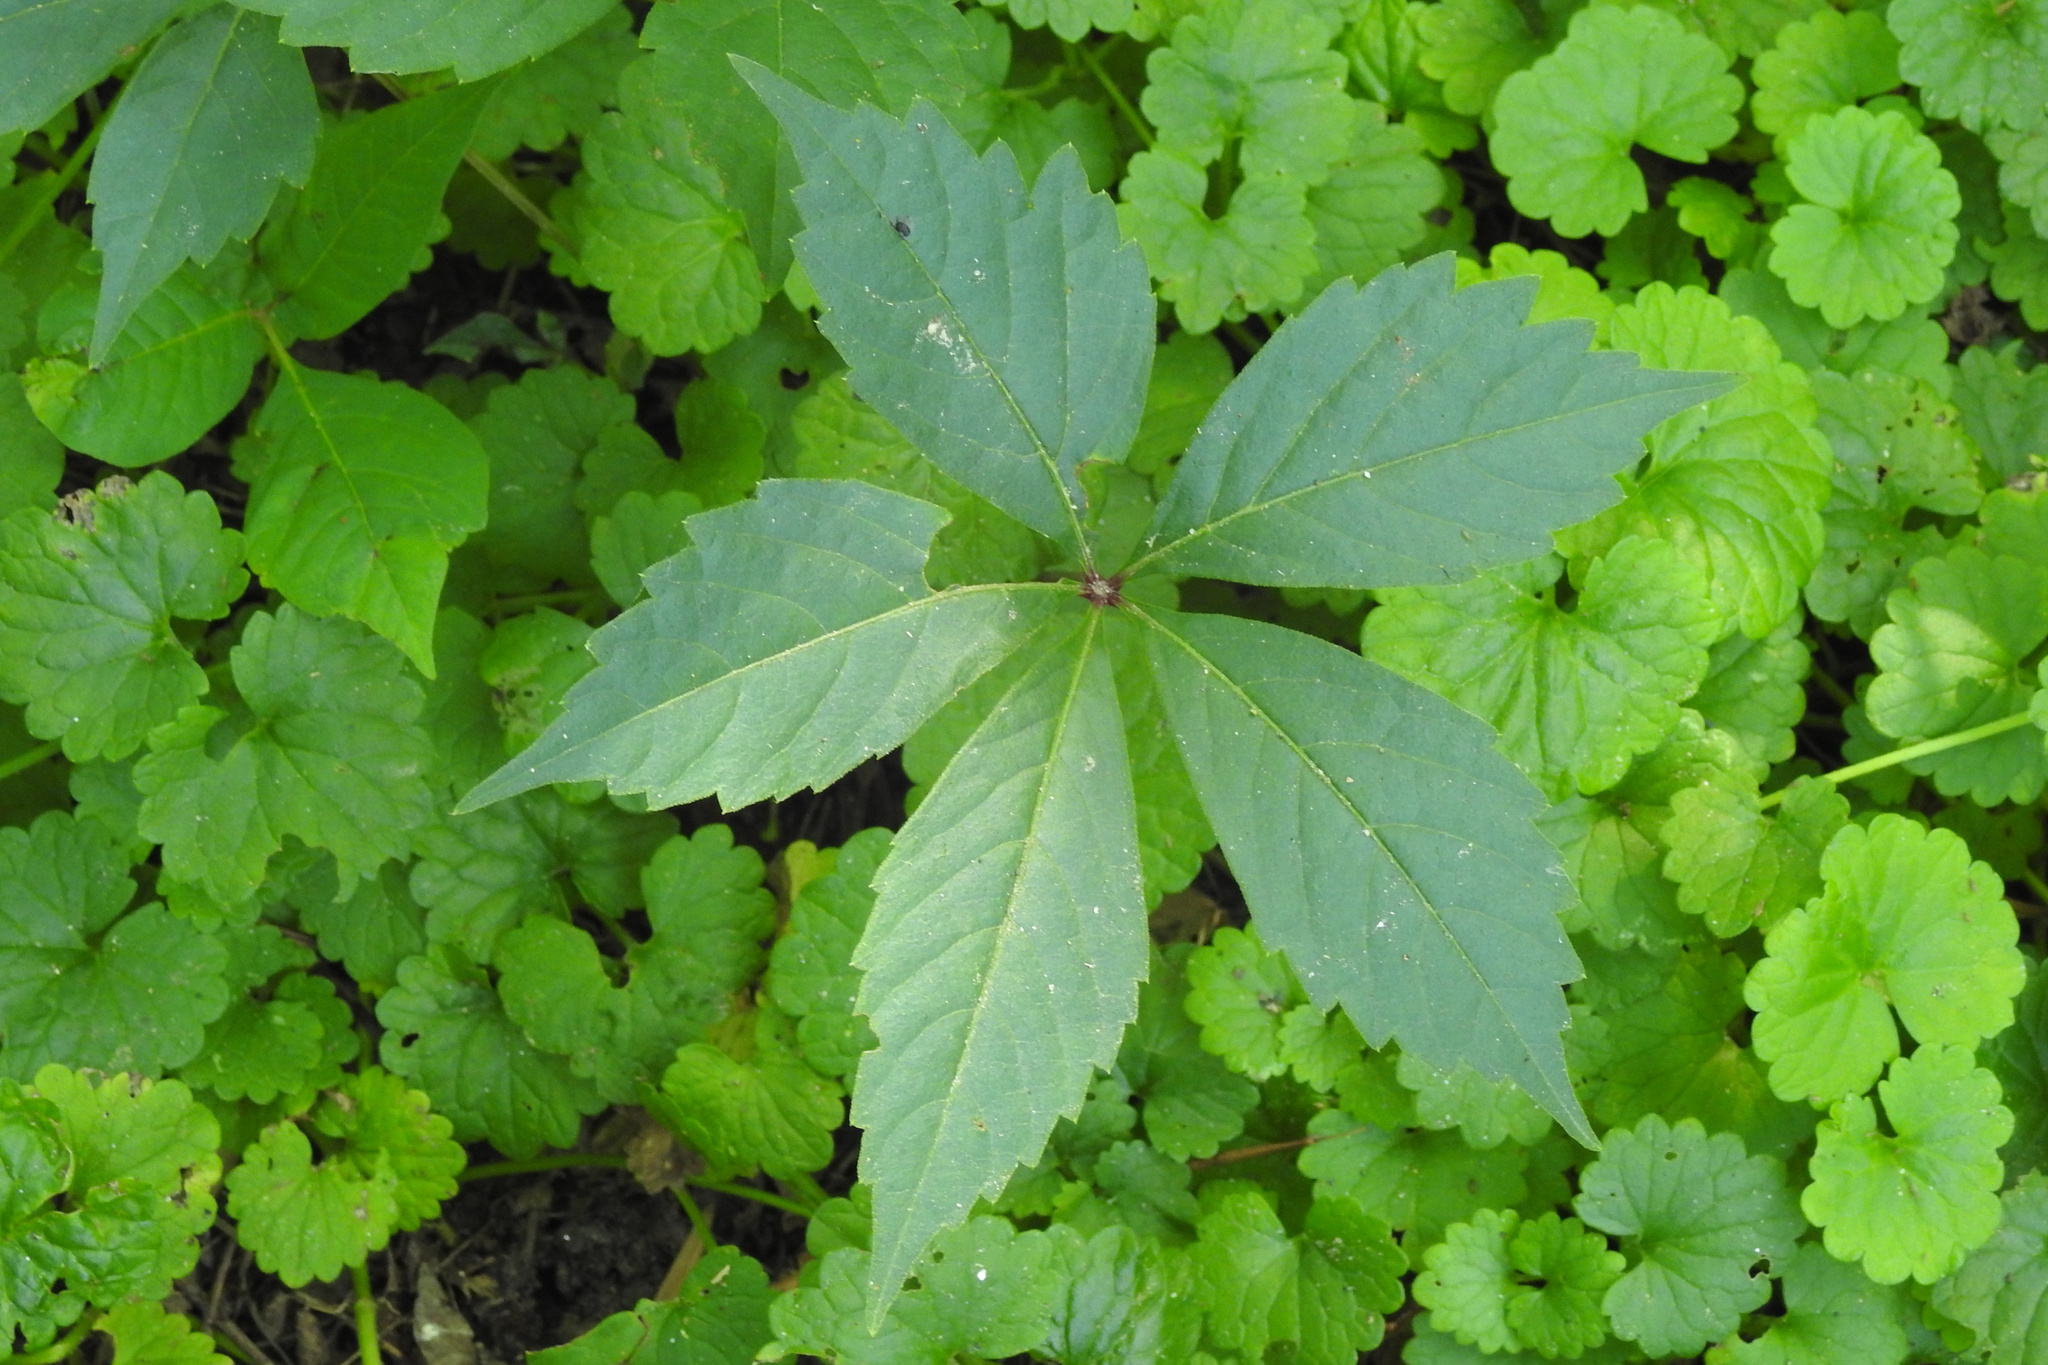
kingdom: Plantae
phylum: Tracheophyta
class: Magnoliopsida
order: Vitales
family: Vitaceae
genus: Parthenocissus
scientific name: Parthenocissus quinquefolia
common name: Virginia-creeper
